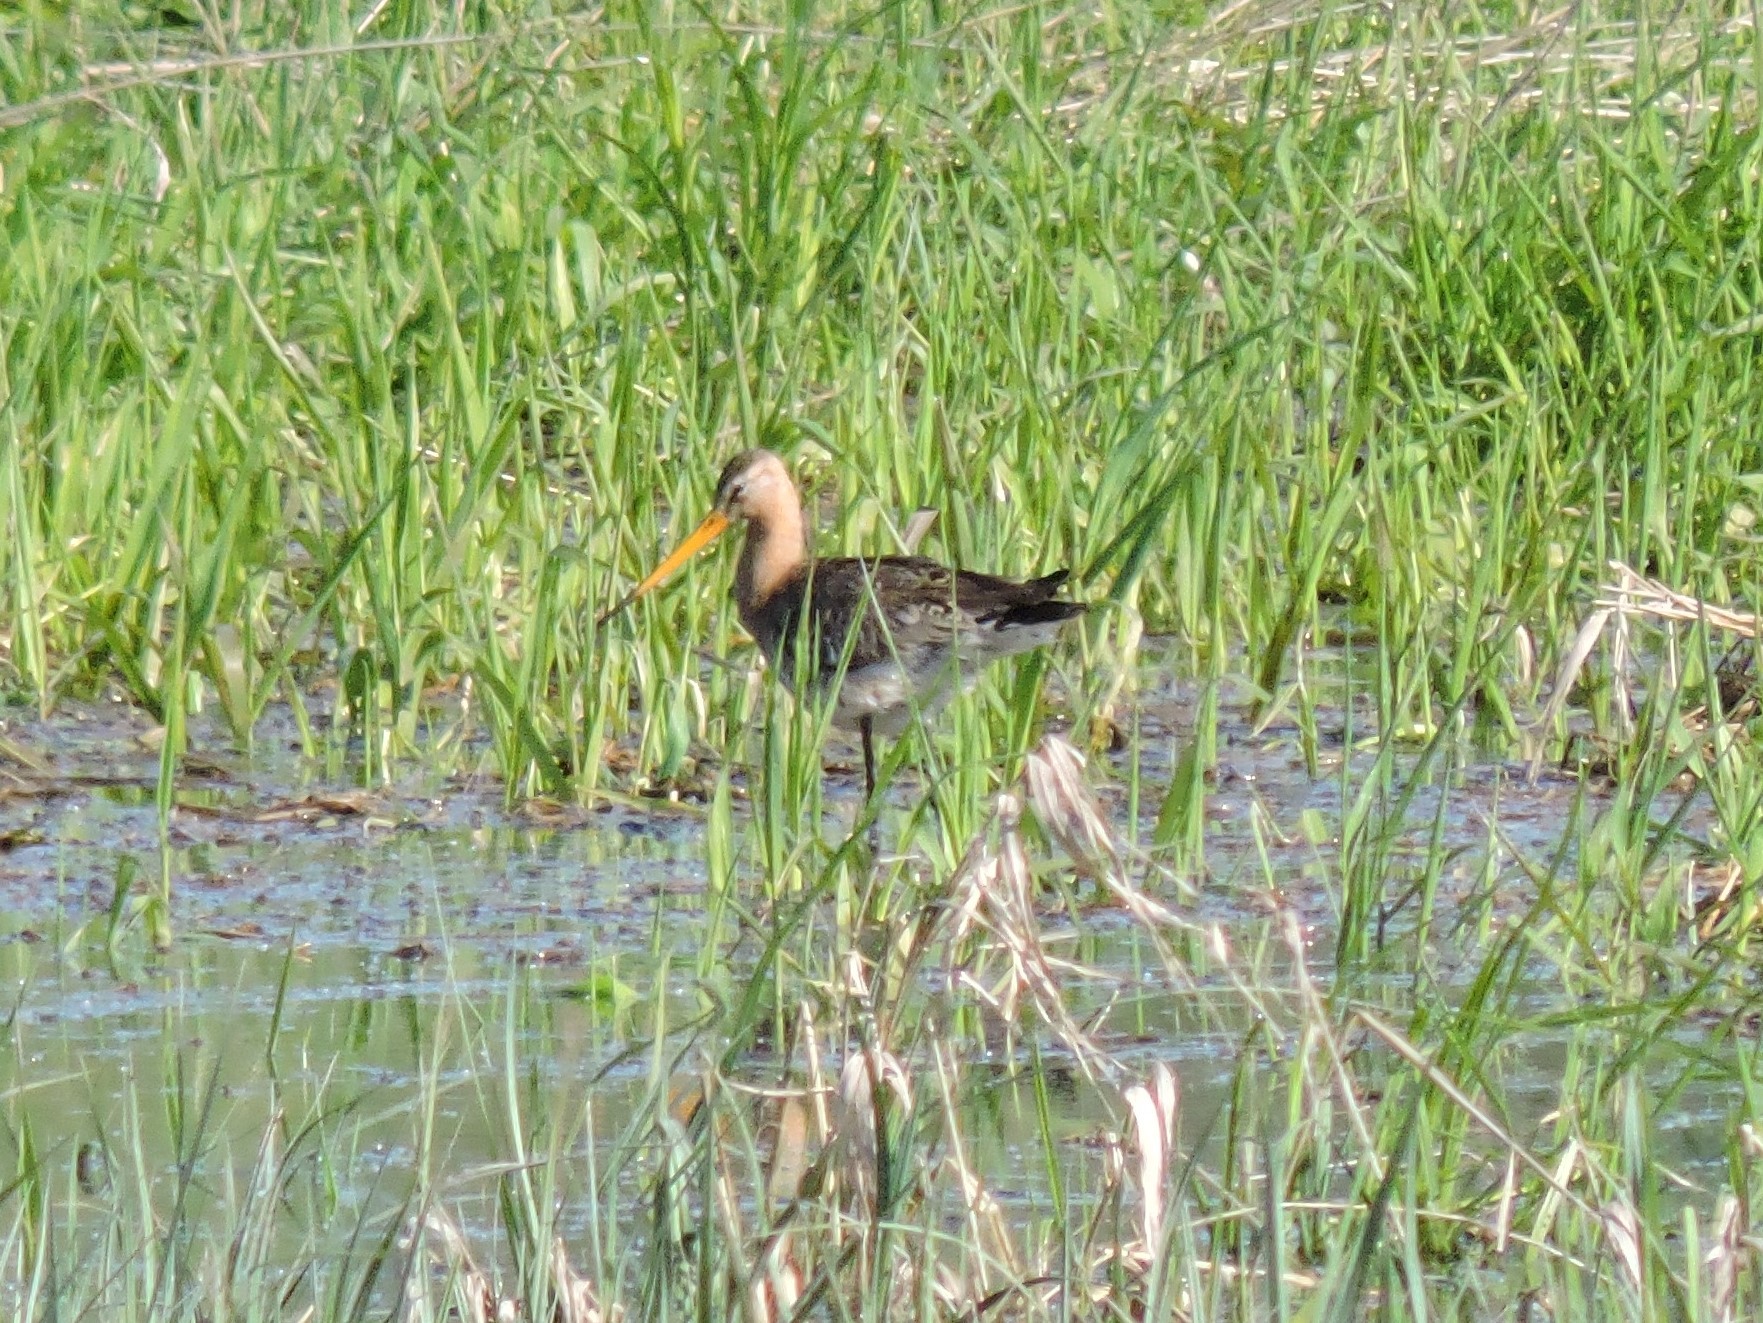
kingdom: Animalia
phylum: Chordata
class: Aves
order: Charadriiformes
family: Scolopacidae
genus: Limosa
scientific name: Limosa limosa
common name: Black-tailed godwit
